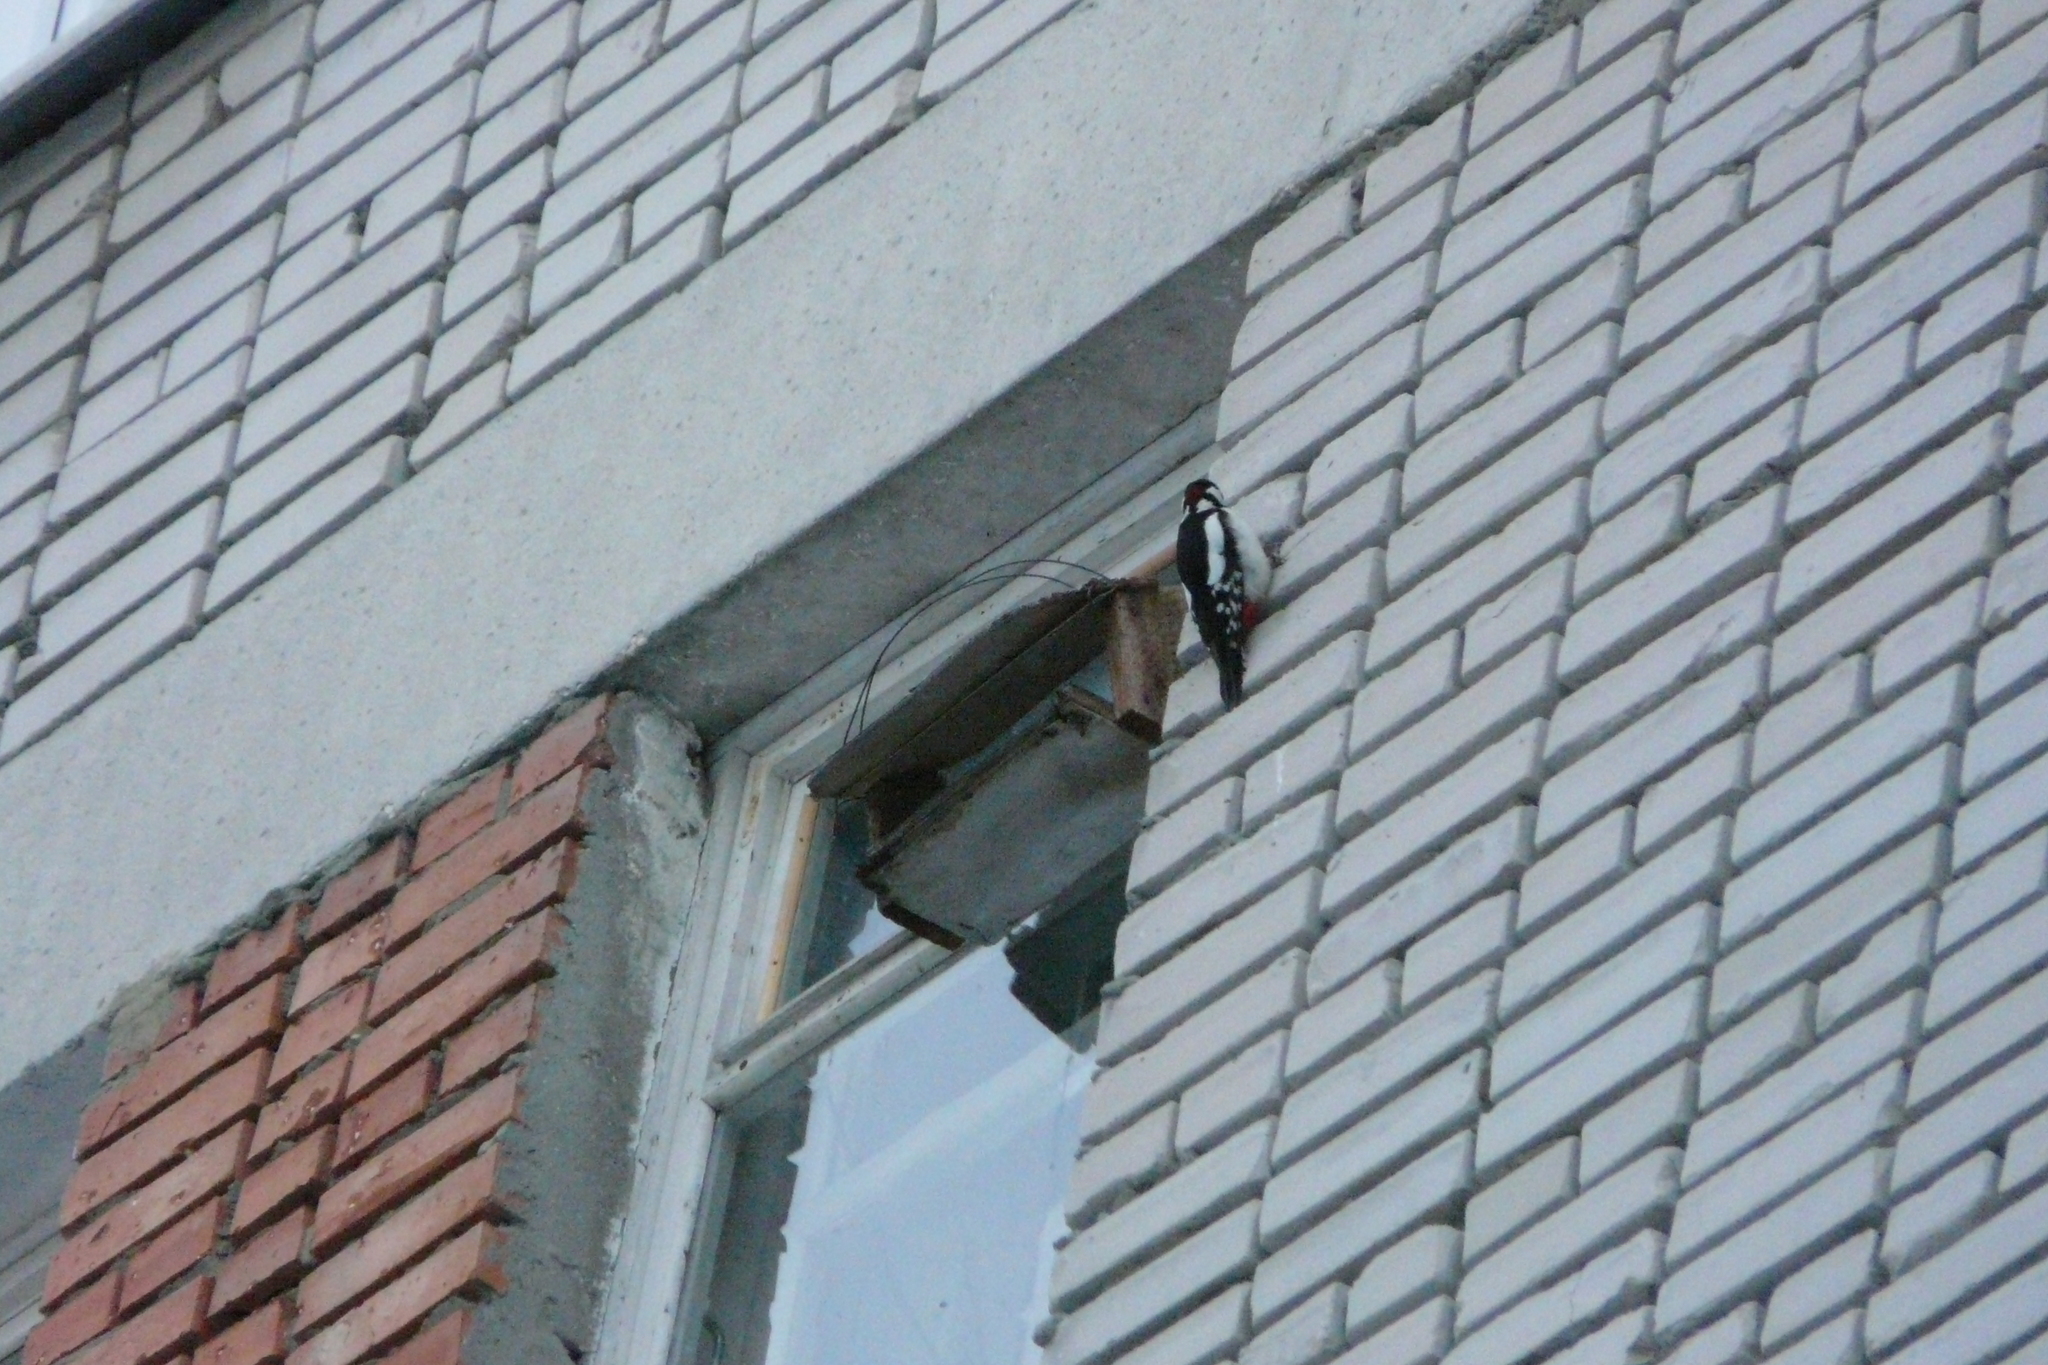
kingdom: Animalia
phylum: Chordata
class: Aves
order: Piciformes
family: Picidae
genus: Dendrocopos
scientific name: Dendrocopos major
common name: Great spotted woodpecker
